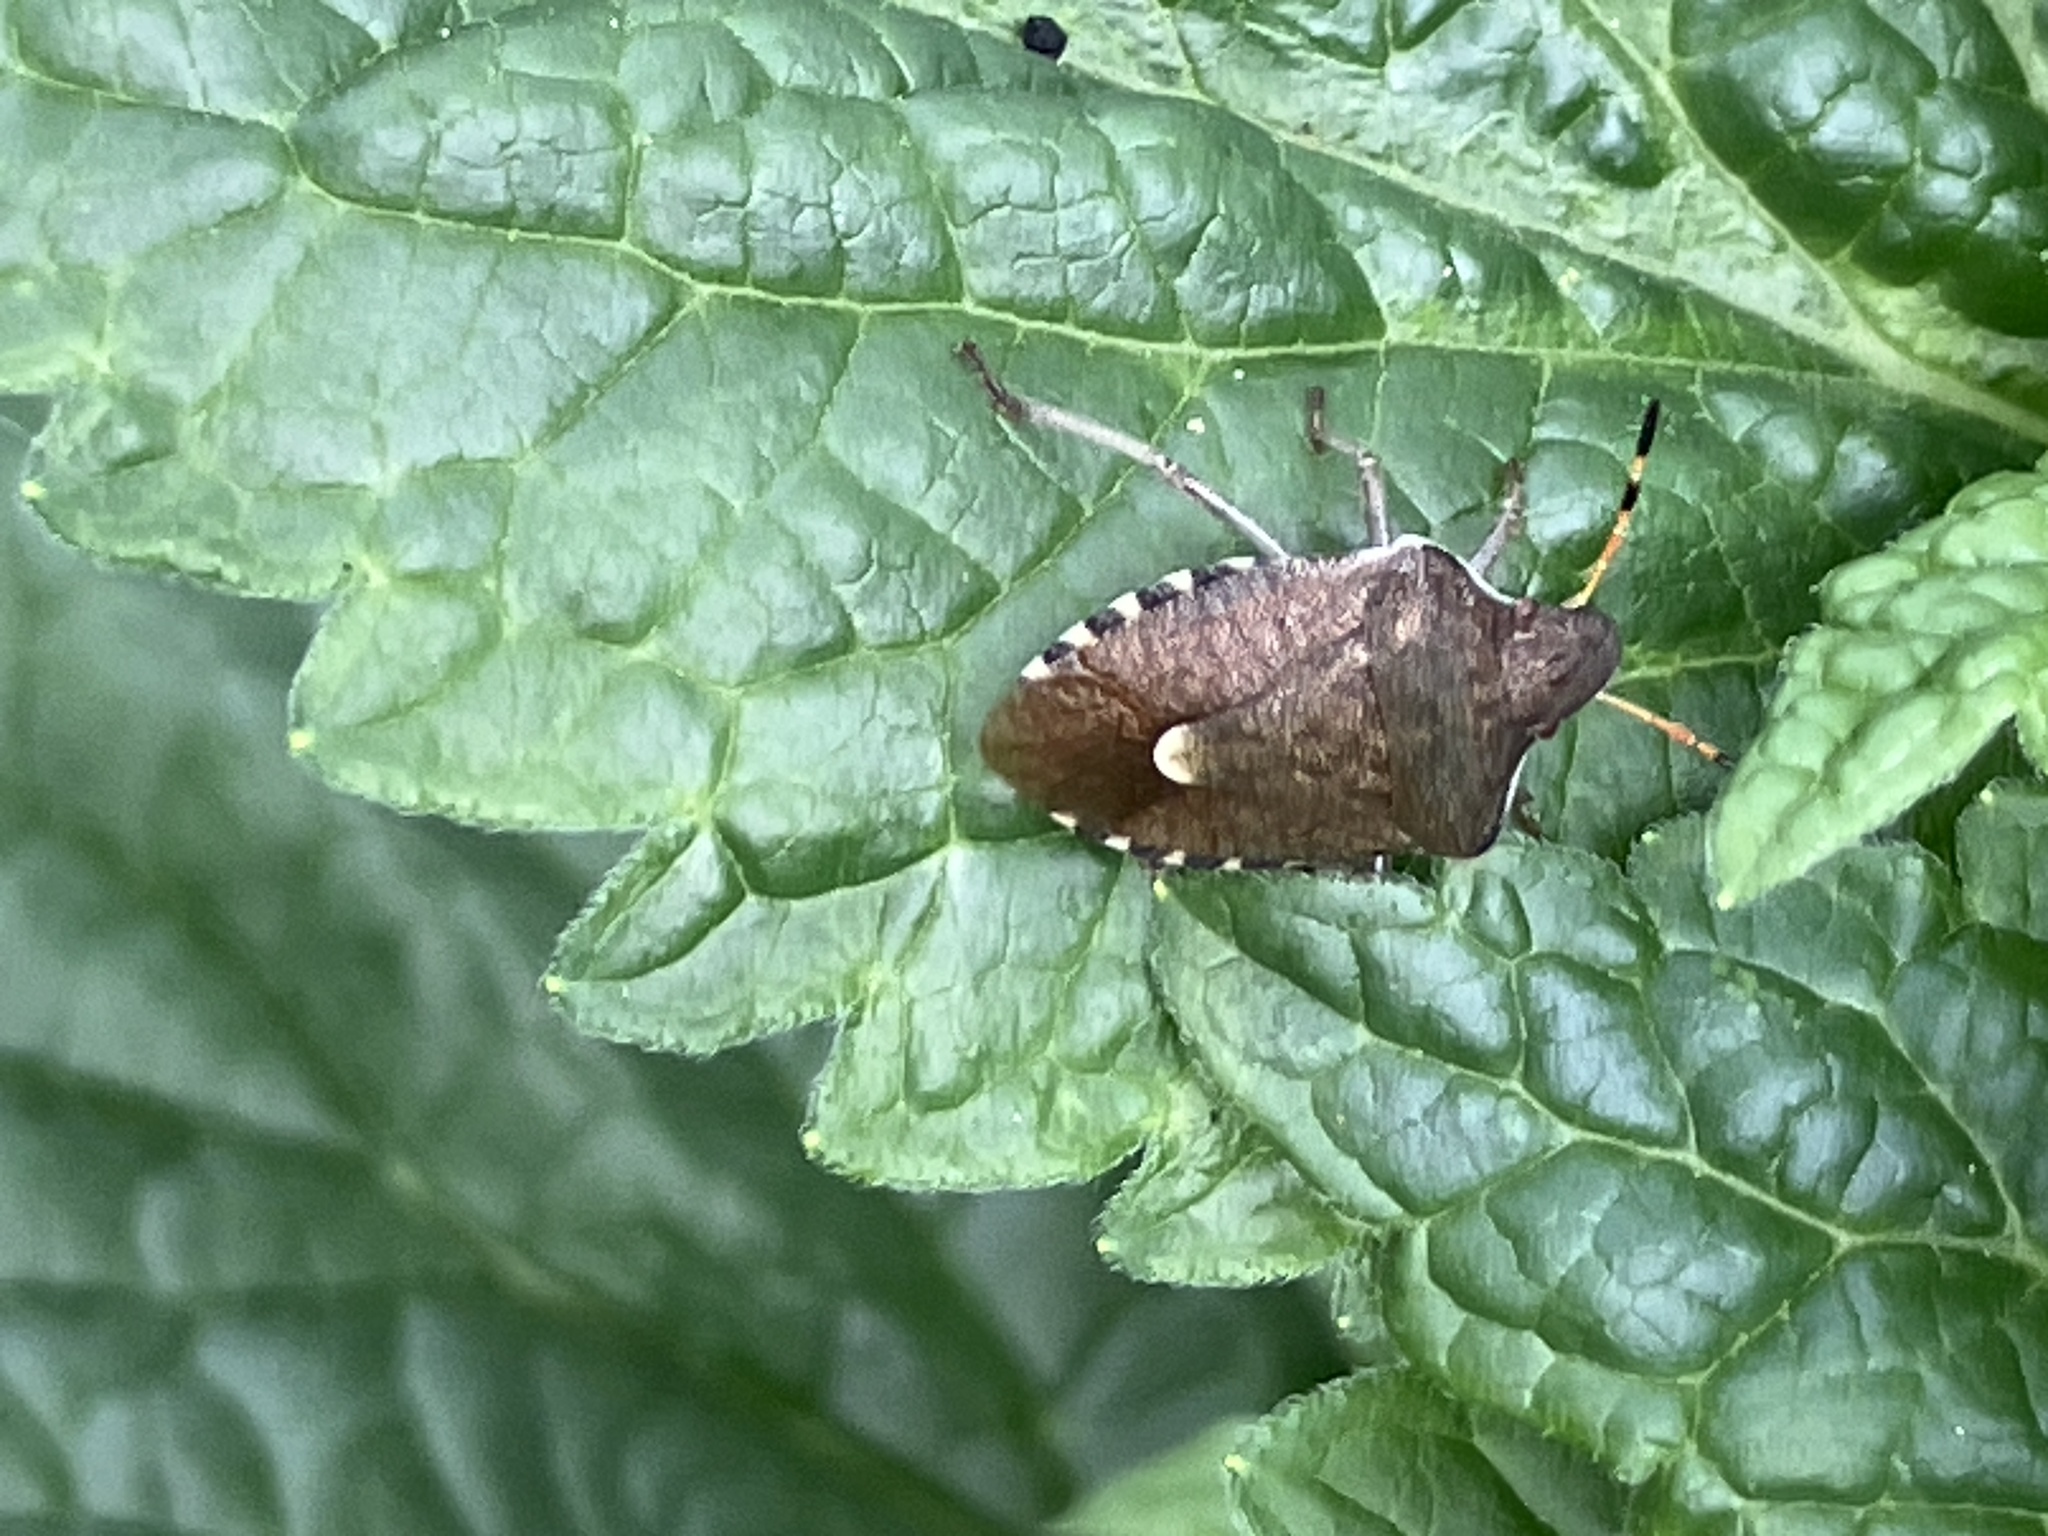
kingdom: Animalia
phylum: Arthropoda
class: Insecta
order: Hemiptera
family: Pentatomidae
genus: Holcostethus
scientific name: Holcostethus strictus
